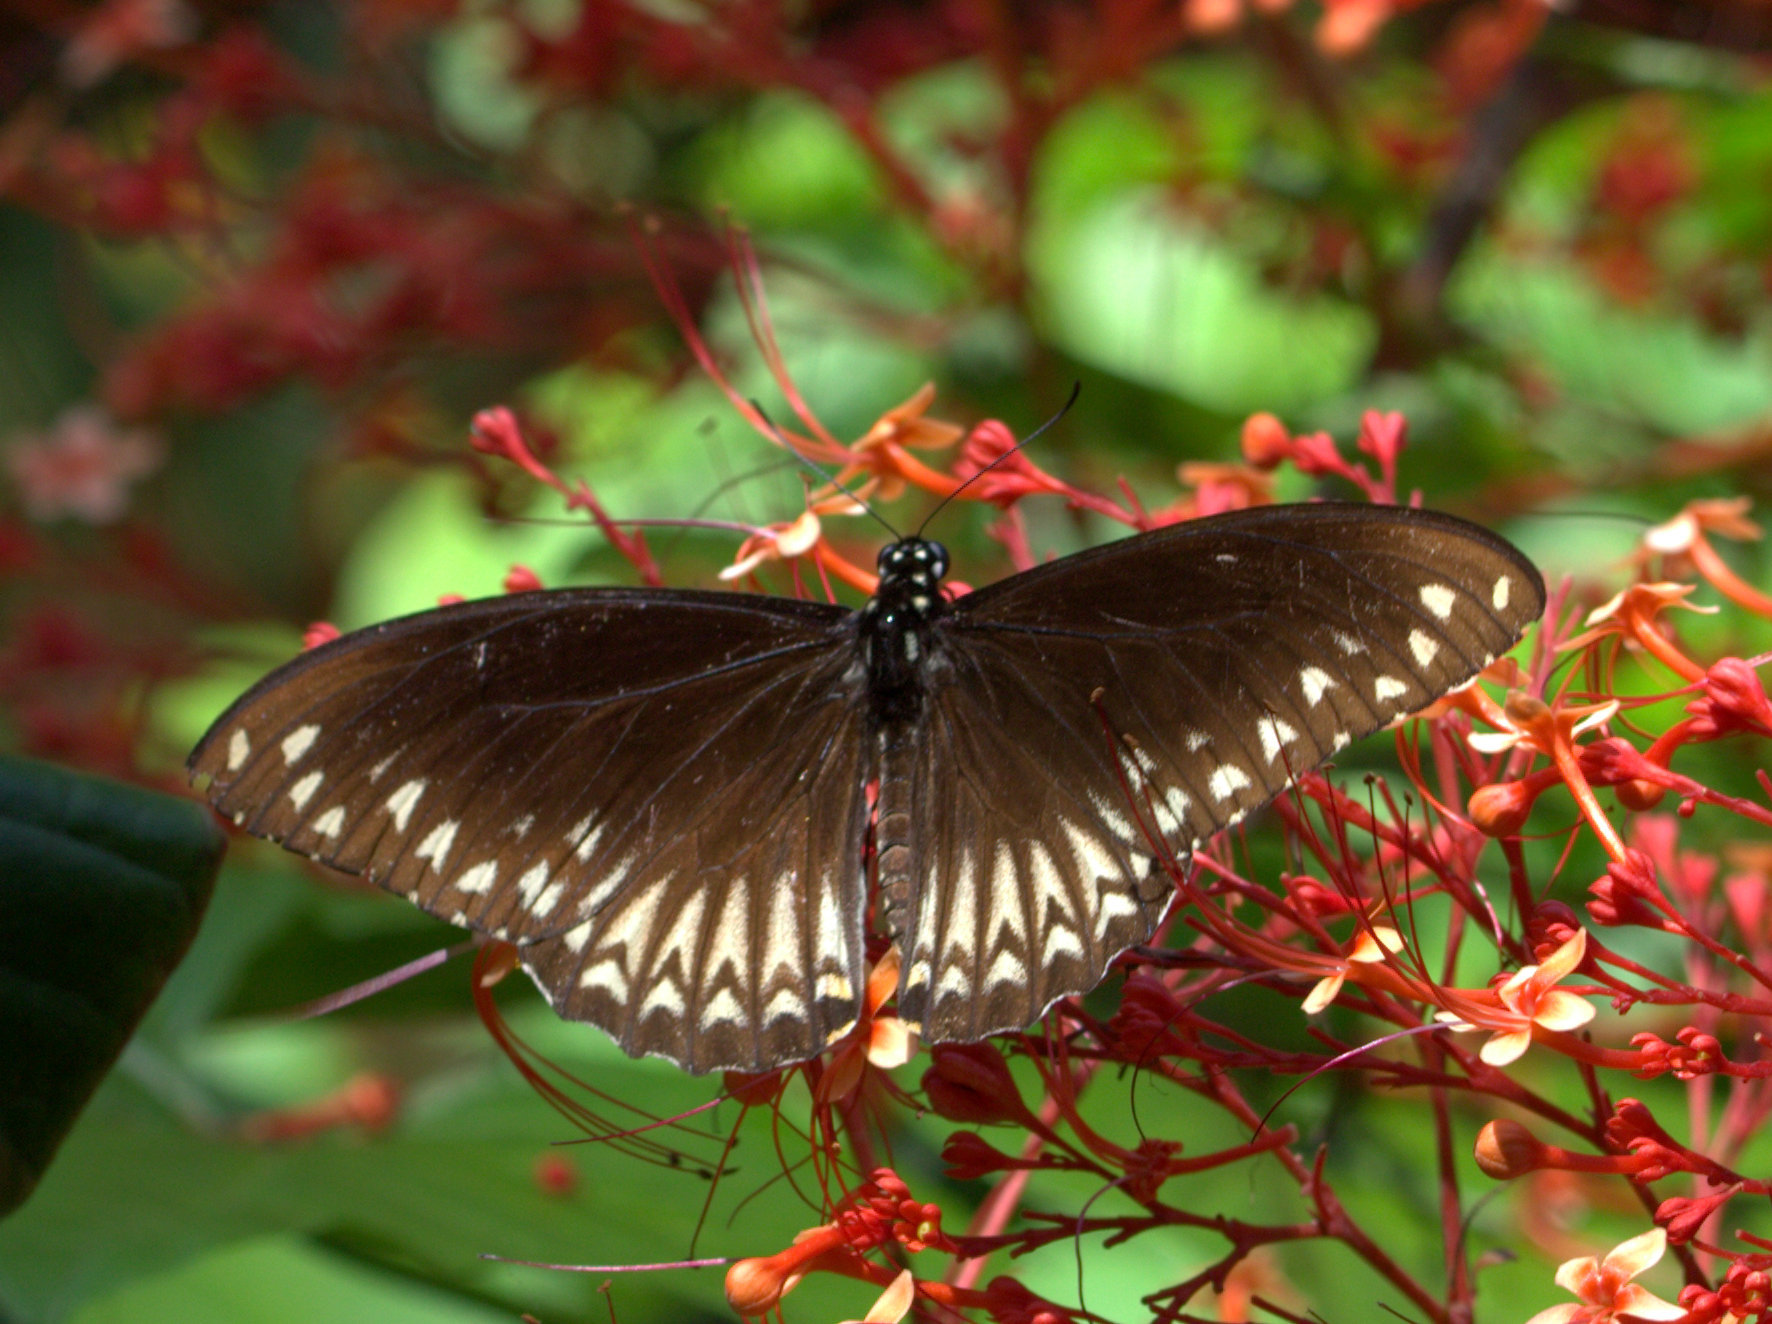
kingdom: Animalia
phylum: Arthropoda
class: Insecta
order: Lepidoptera
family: Papilionidae
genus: Chilasa
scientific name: Chilasa clytia
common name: Common mime
